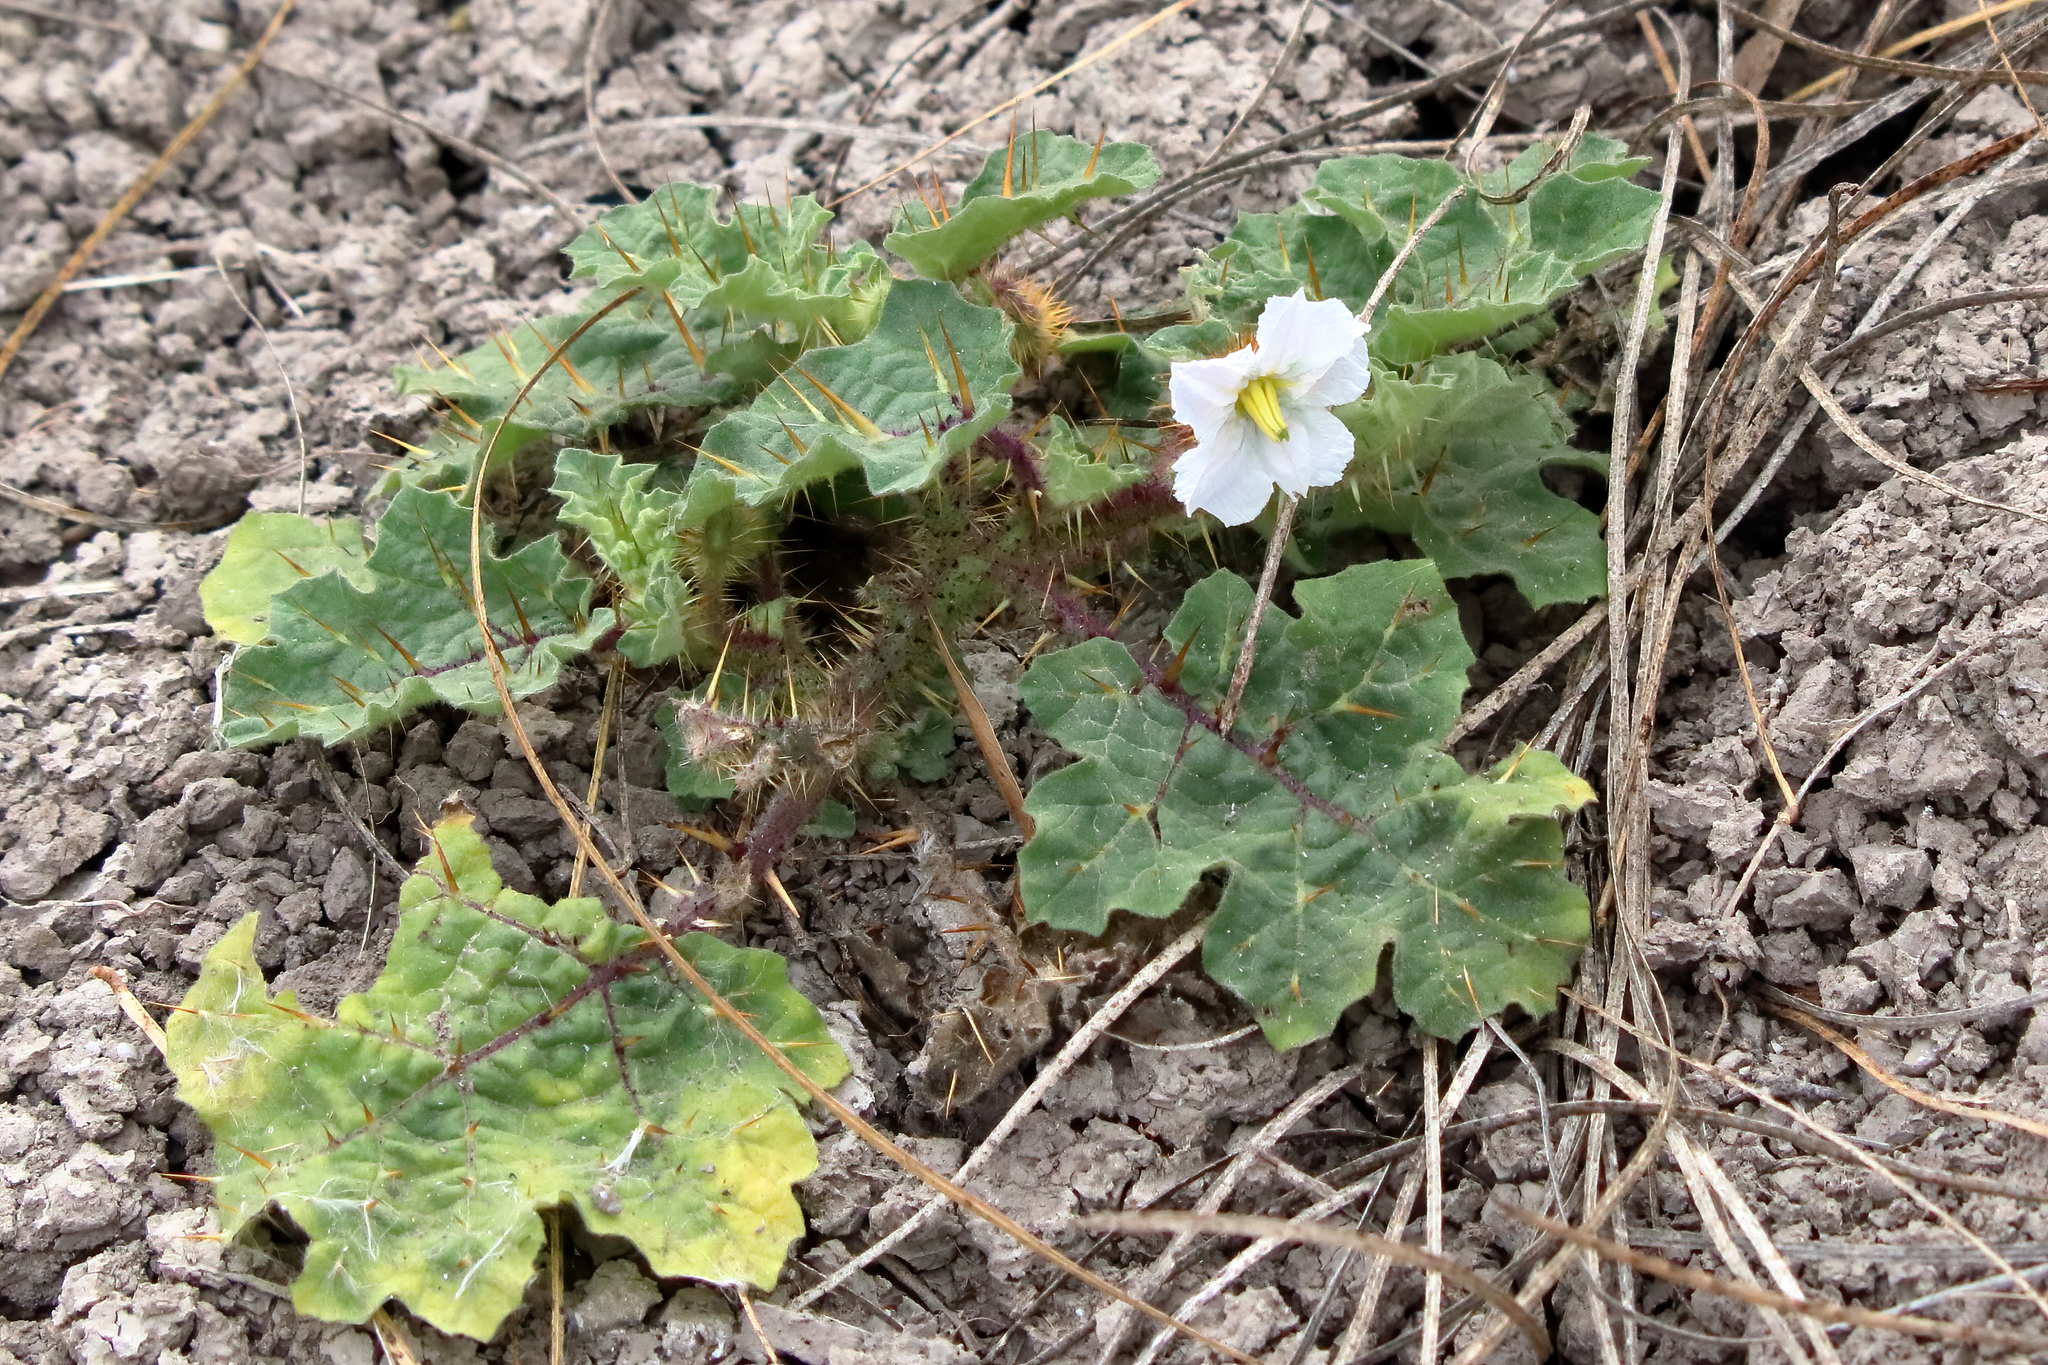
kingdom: Plantae
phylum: Tracheophyta
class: Magnoliopsida
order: Solanales
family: Solanaceae
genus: Solanum
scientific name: Solanum campechiense
